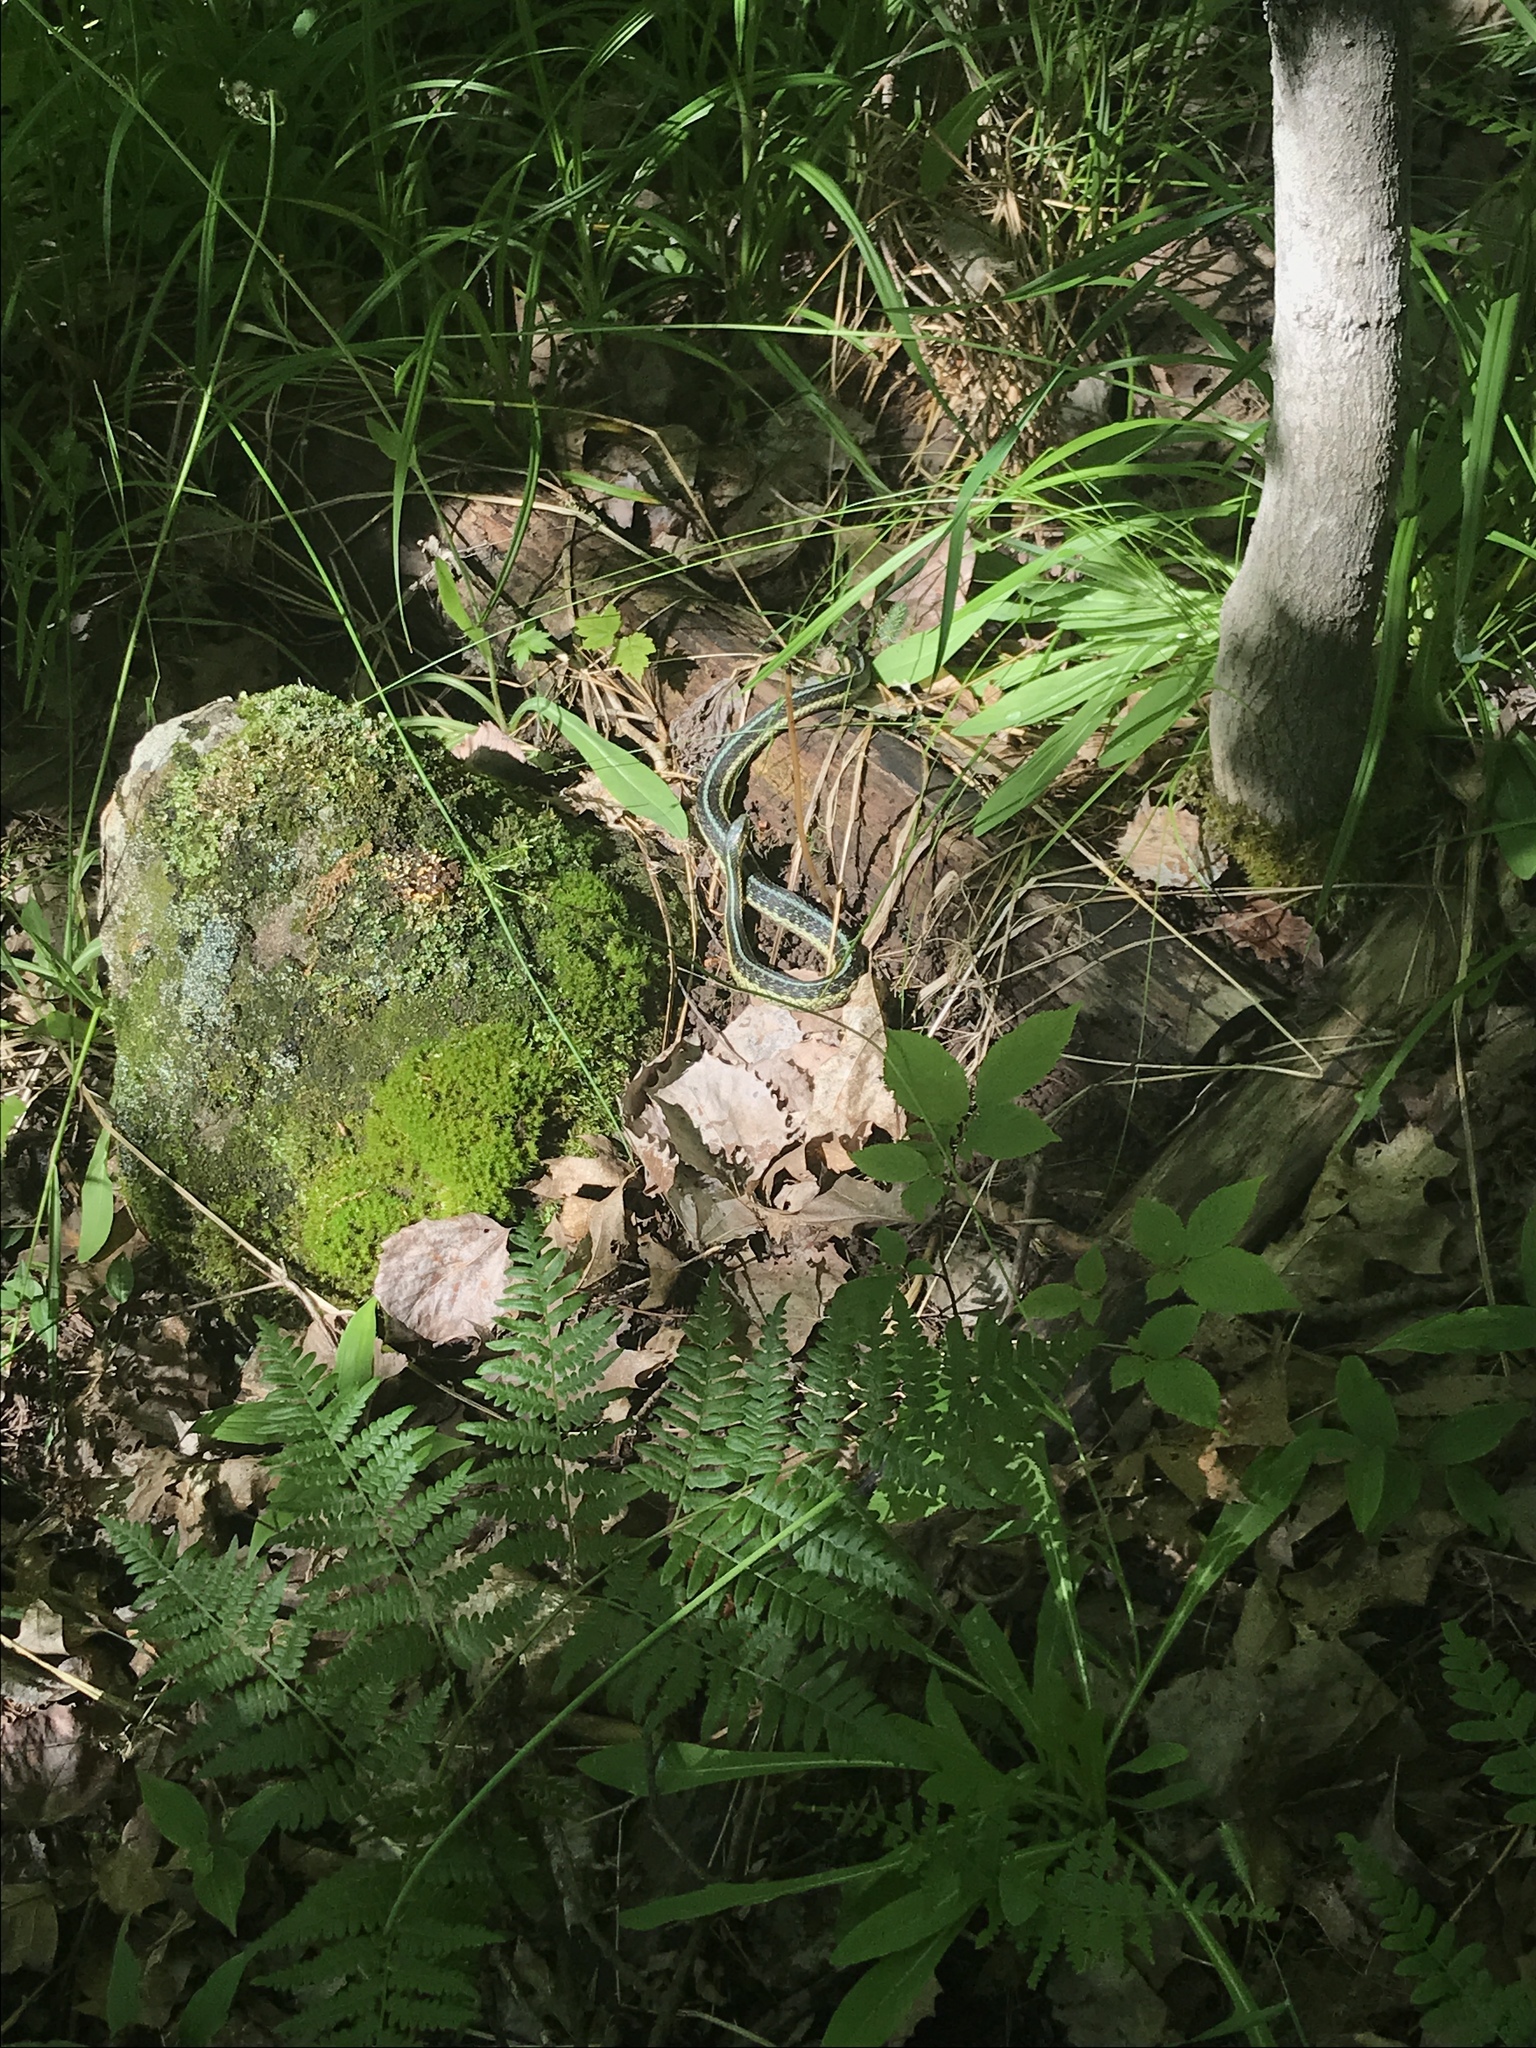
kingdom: Animalia
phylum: Chordata
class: Squamata
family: Colubridae
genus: Thamnophis
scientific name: Thamnophis sirtalis
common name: Common garter snake
